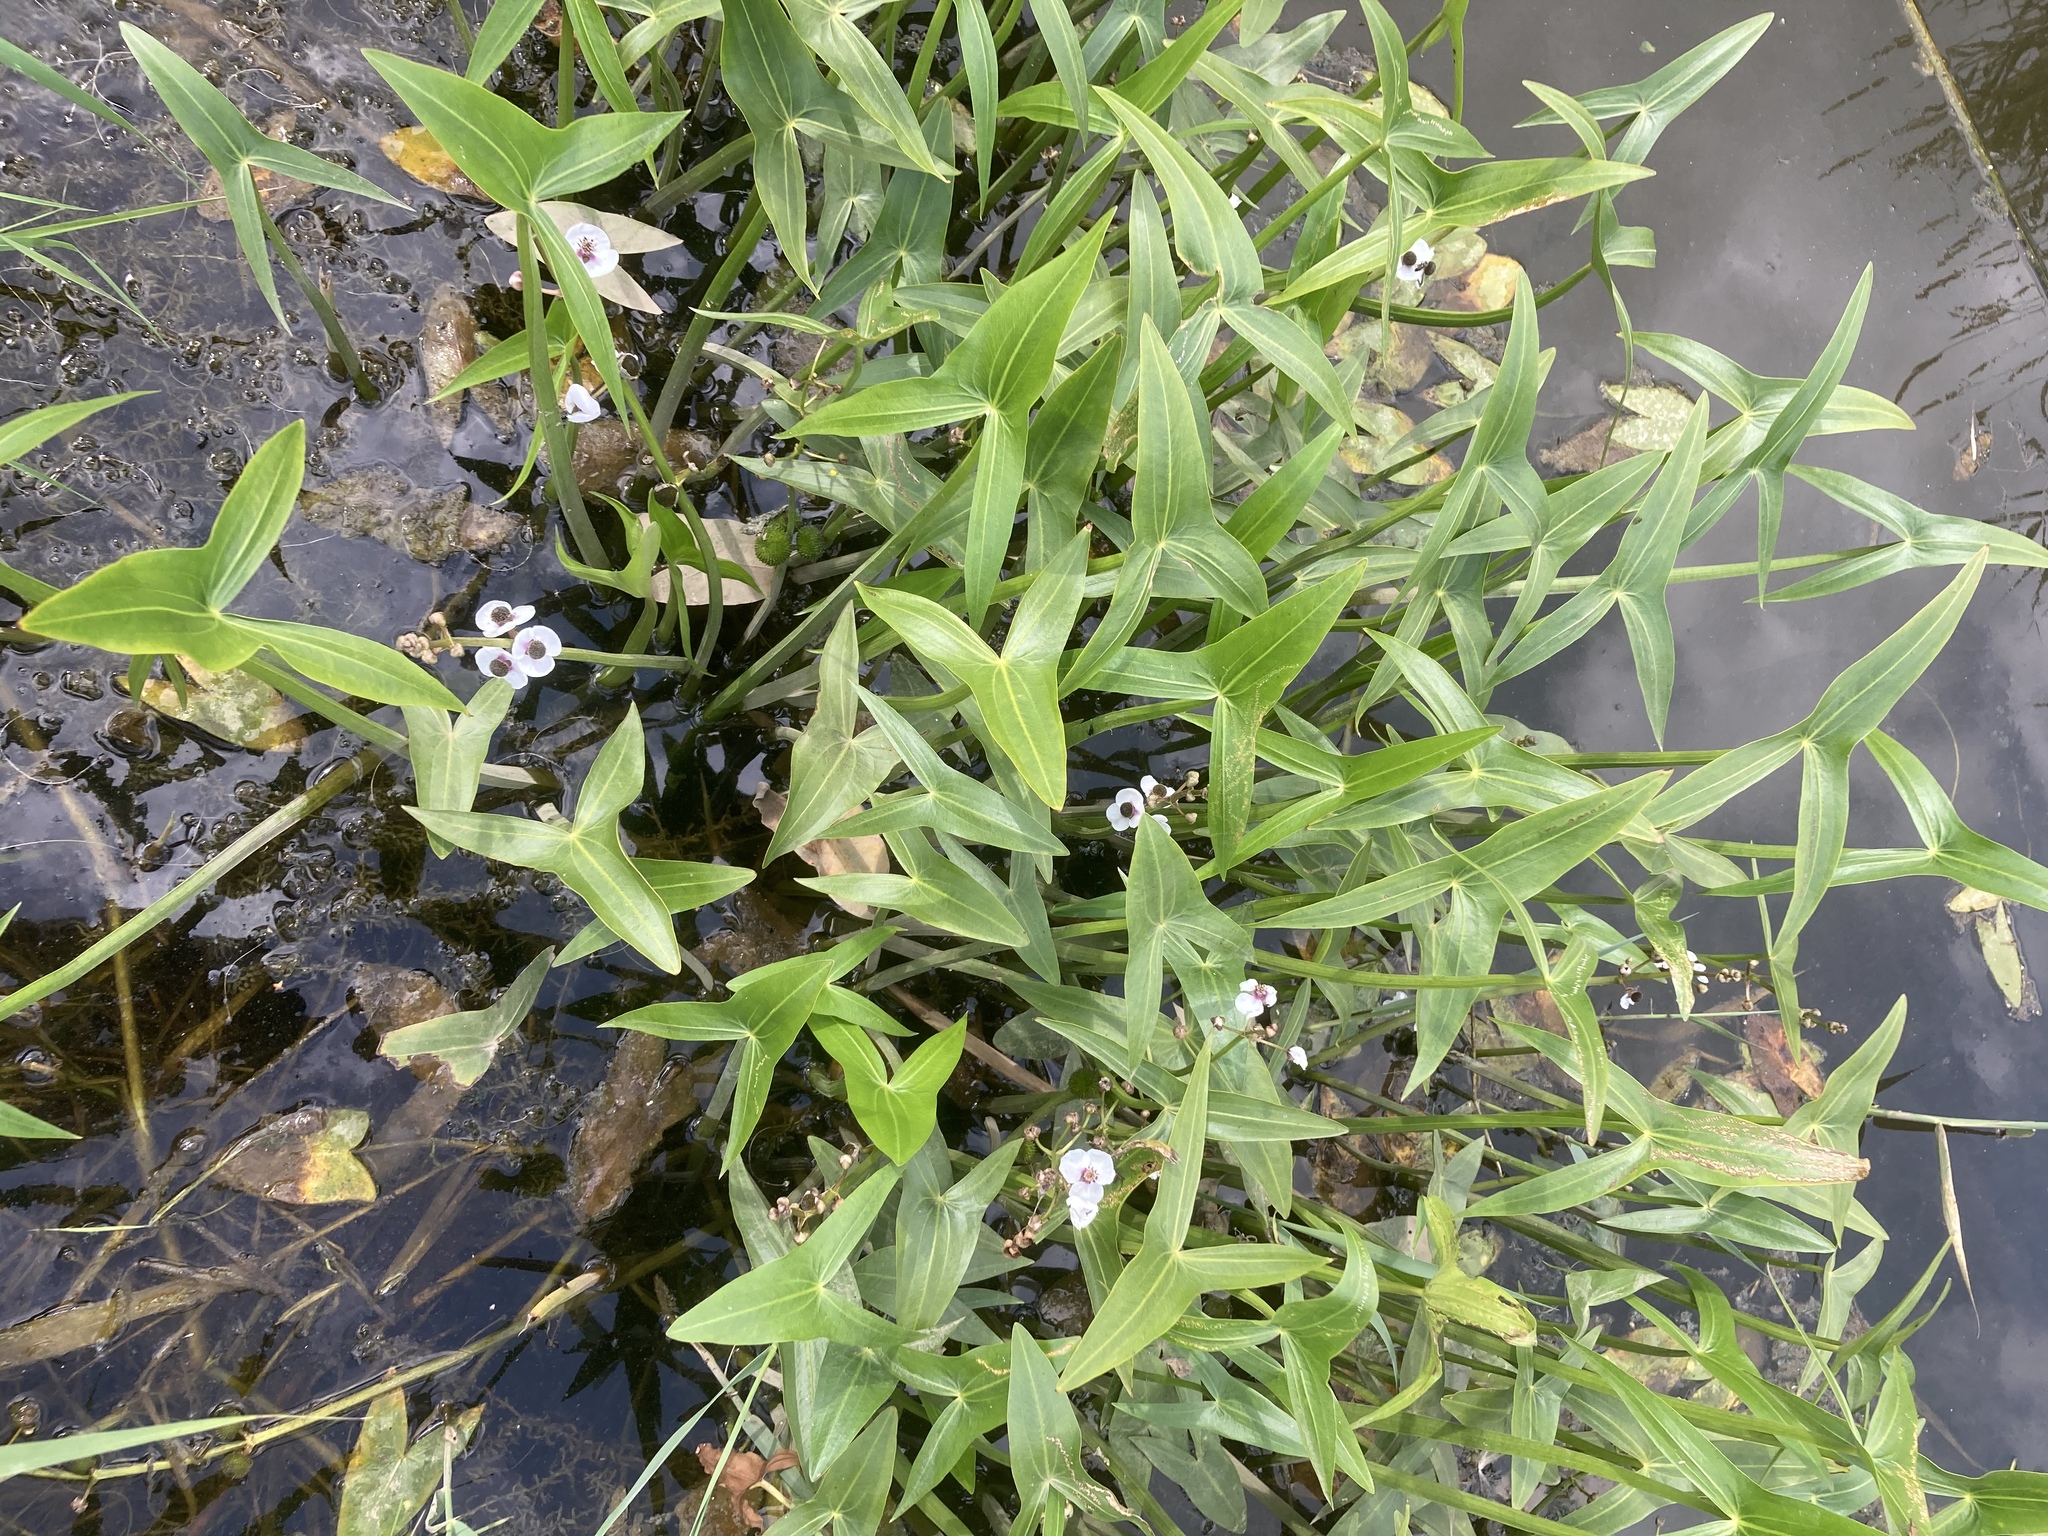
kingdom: Plantae
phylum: Tracheophyta
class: Liliopsida
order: Alismatales
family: Alismataceae
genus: Sagittaria
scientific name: Sagittaria sagittifolia
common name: Arrowhead
